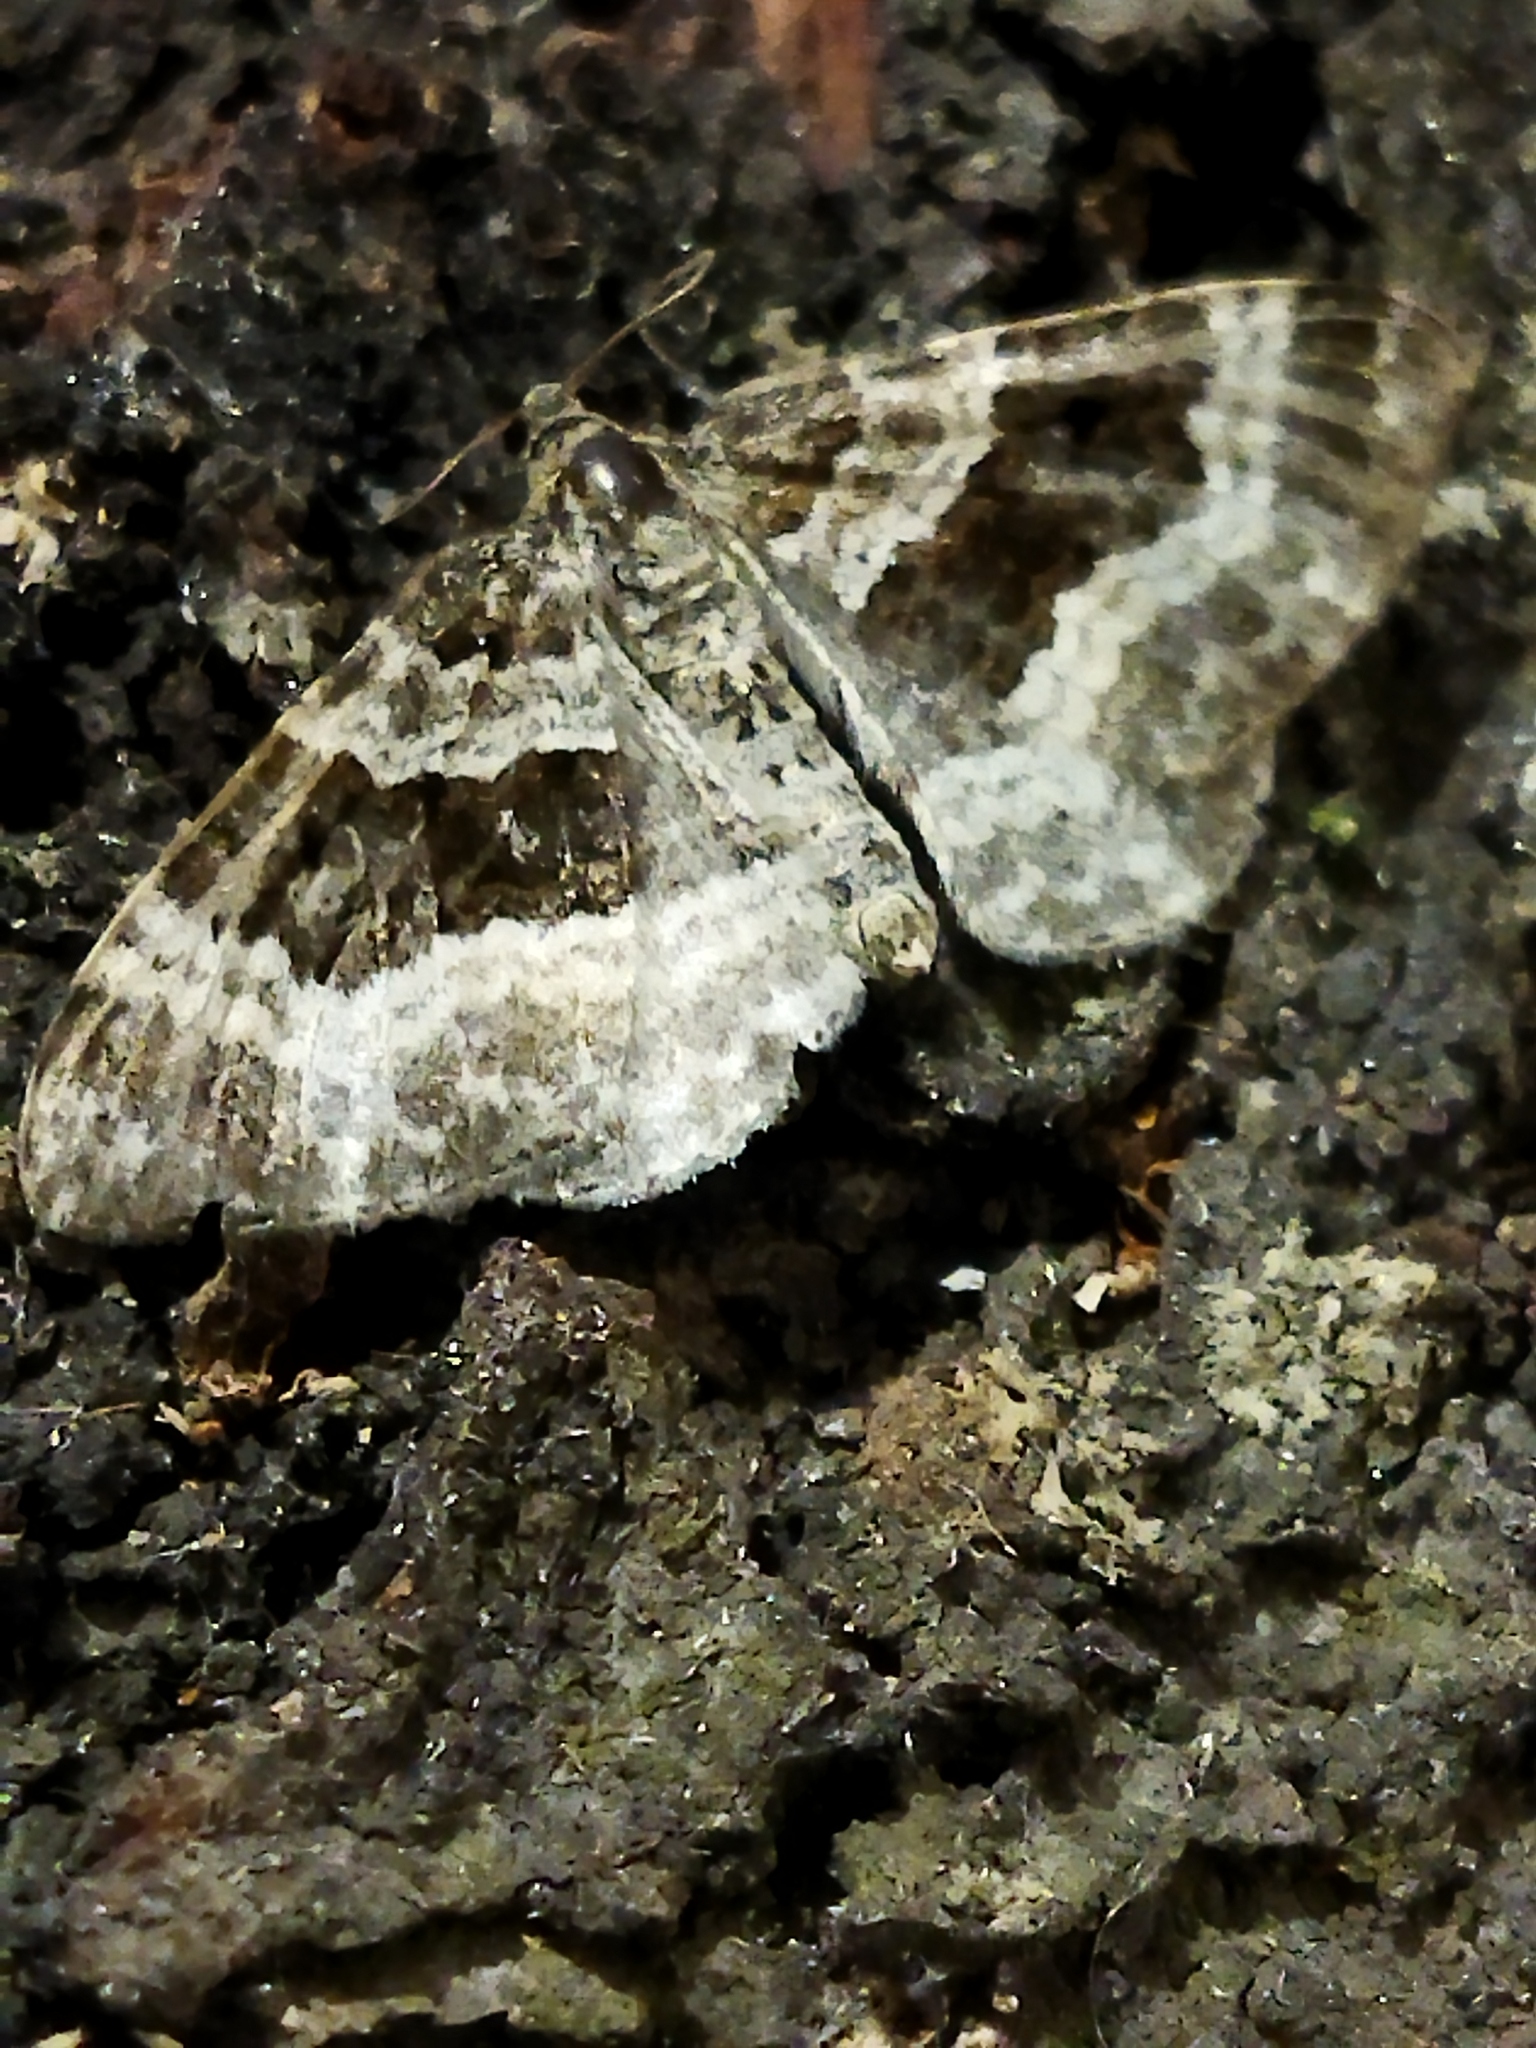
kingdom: Animalia
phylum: Arthropoda
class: Insecta
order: Lepidoptera
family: Geometridae
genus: Epirrhoe
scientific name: Epirrhoe alternata
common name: Common carpet
